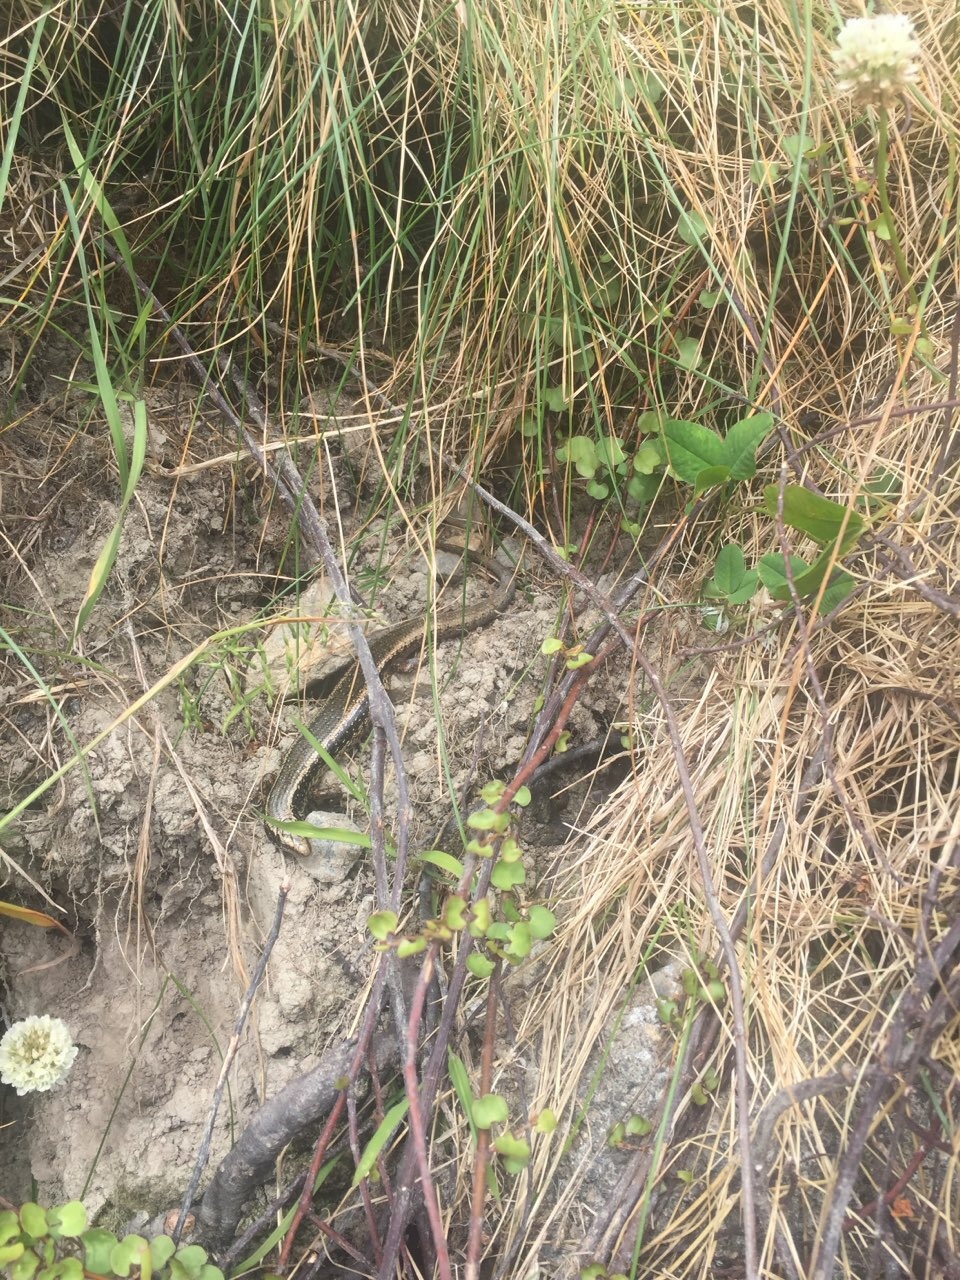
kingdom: Animalia
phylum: Chordata
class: Squamata
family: Scincidae
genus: Oligosoma
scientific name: Oligosoma kokowai
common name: Northern spotted skink
